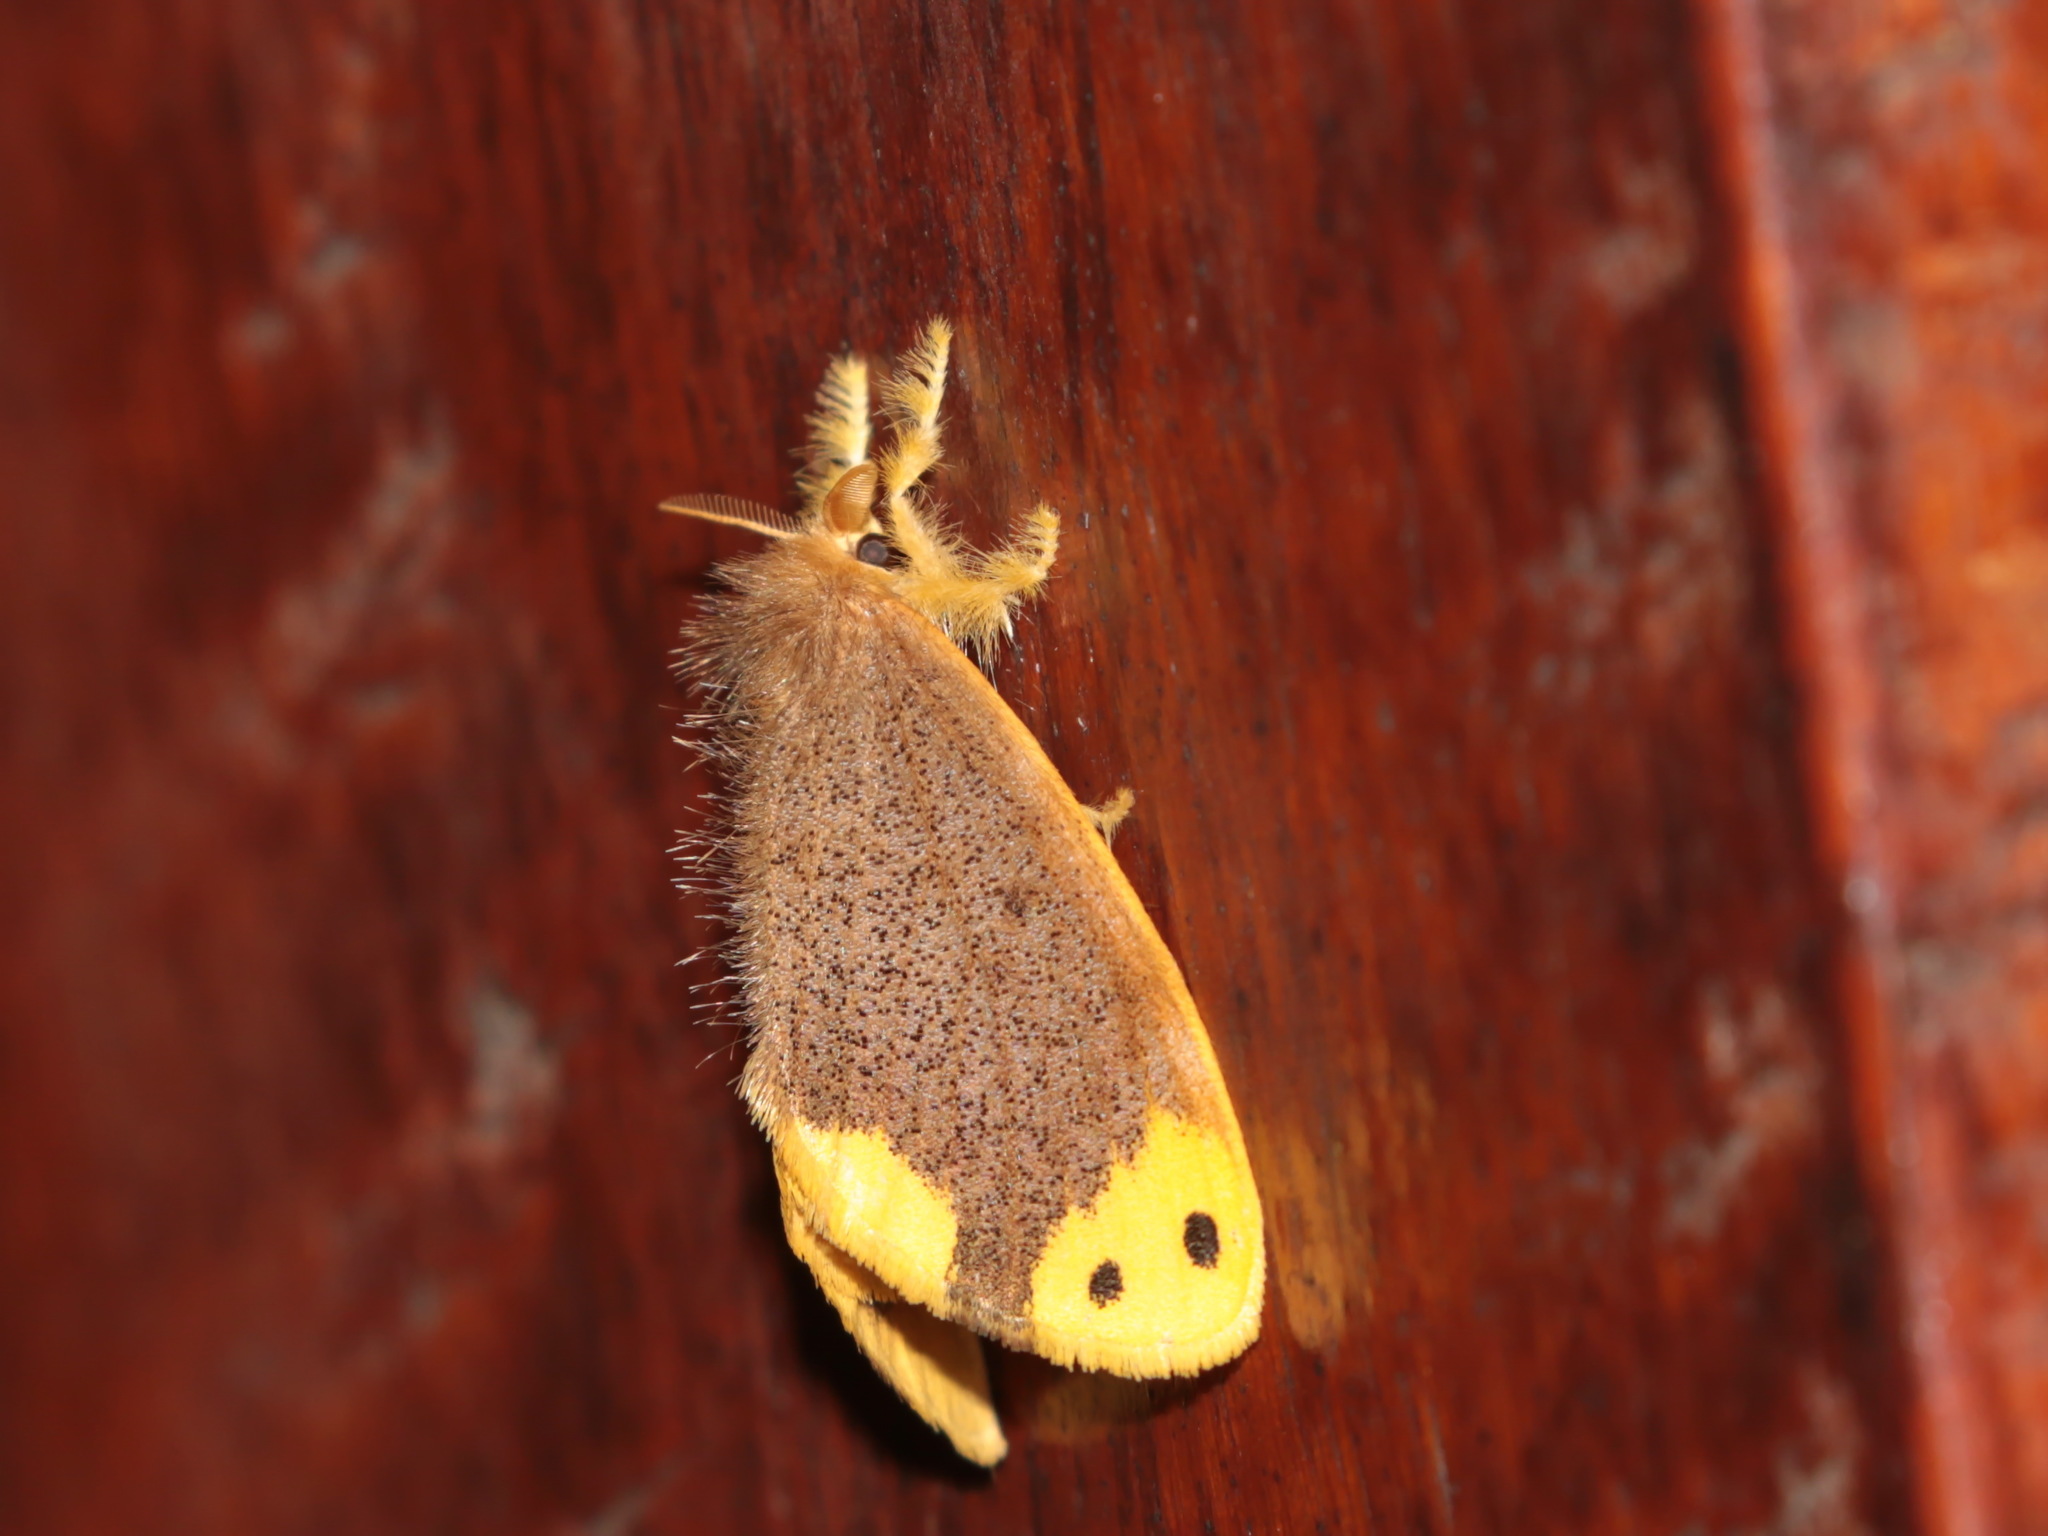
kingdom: Animalia
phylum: Arthropoda
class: Insecta
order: Lepidoptera
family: Erebidae
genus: Arna
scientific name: Arna bipunctapex
